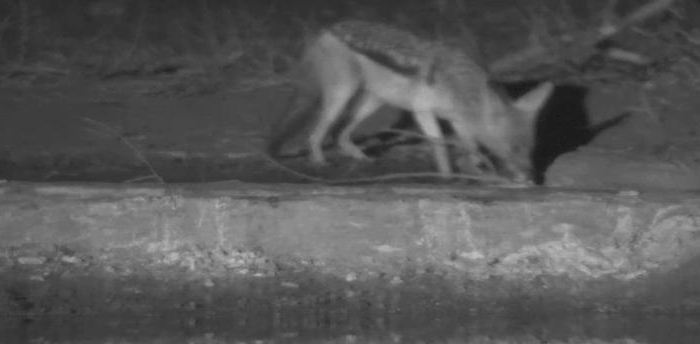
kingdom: Animalia
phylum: Chordata
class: Mammalia
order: Carnivora
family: Canidae
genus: Lupulella
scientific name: Lupulella
